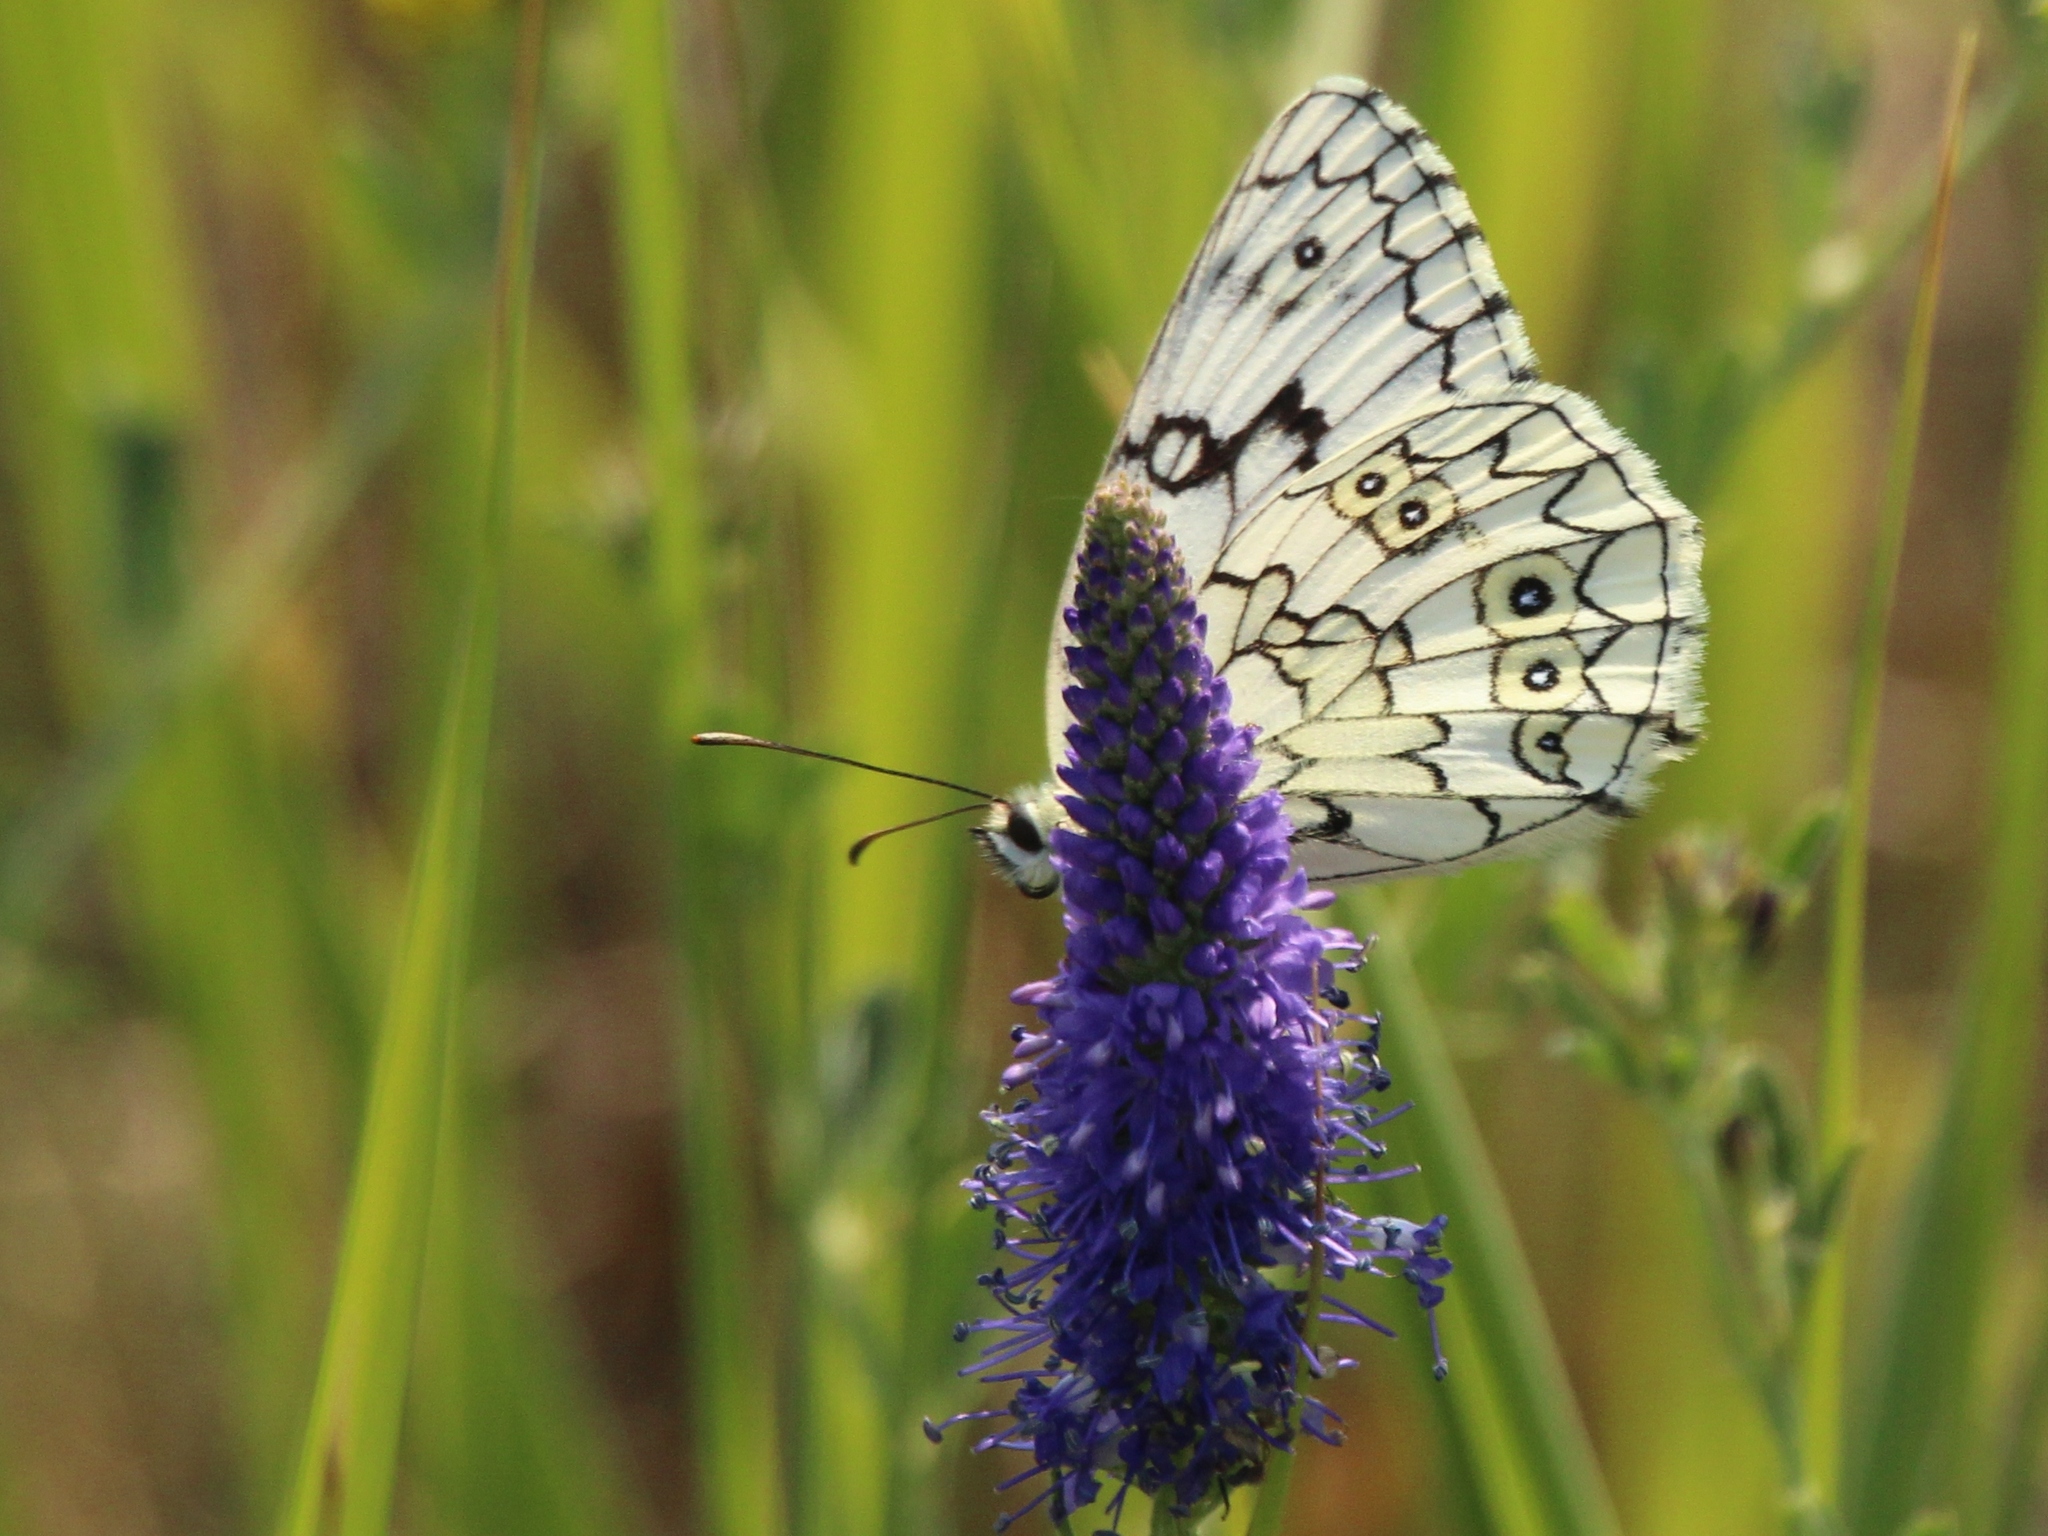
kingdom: Animalia
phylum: Arthropoda
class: Insecta
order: Lepidoptera
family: Nymphalidae
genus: Melanargia
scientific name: Melanargia japygia
